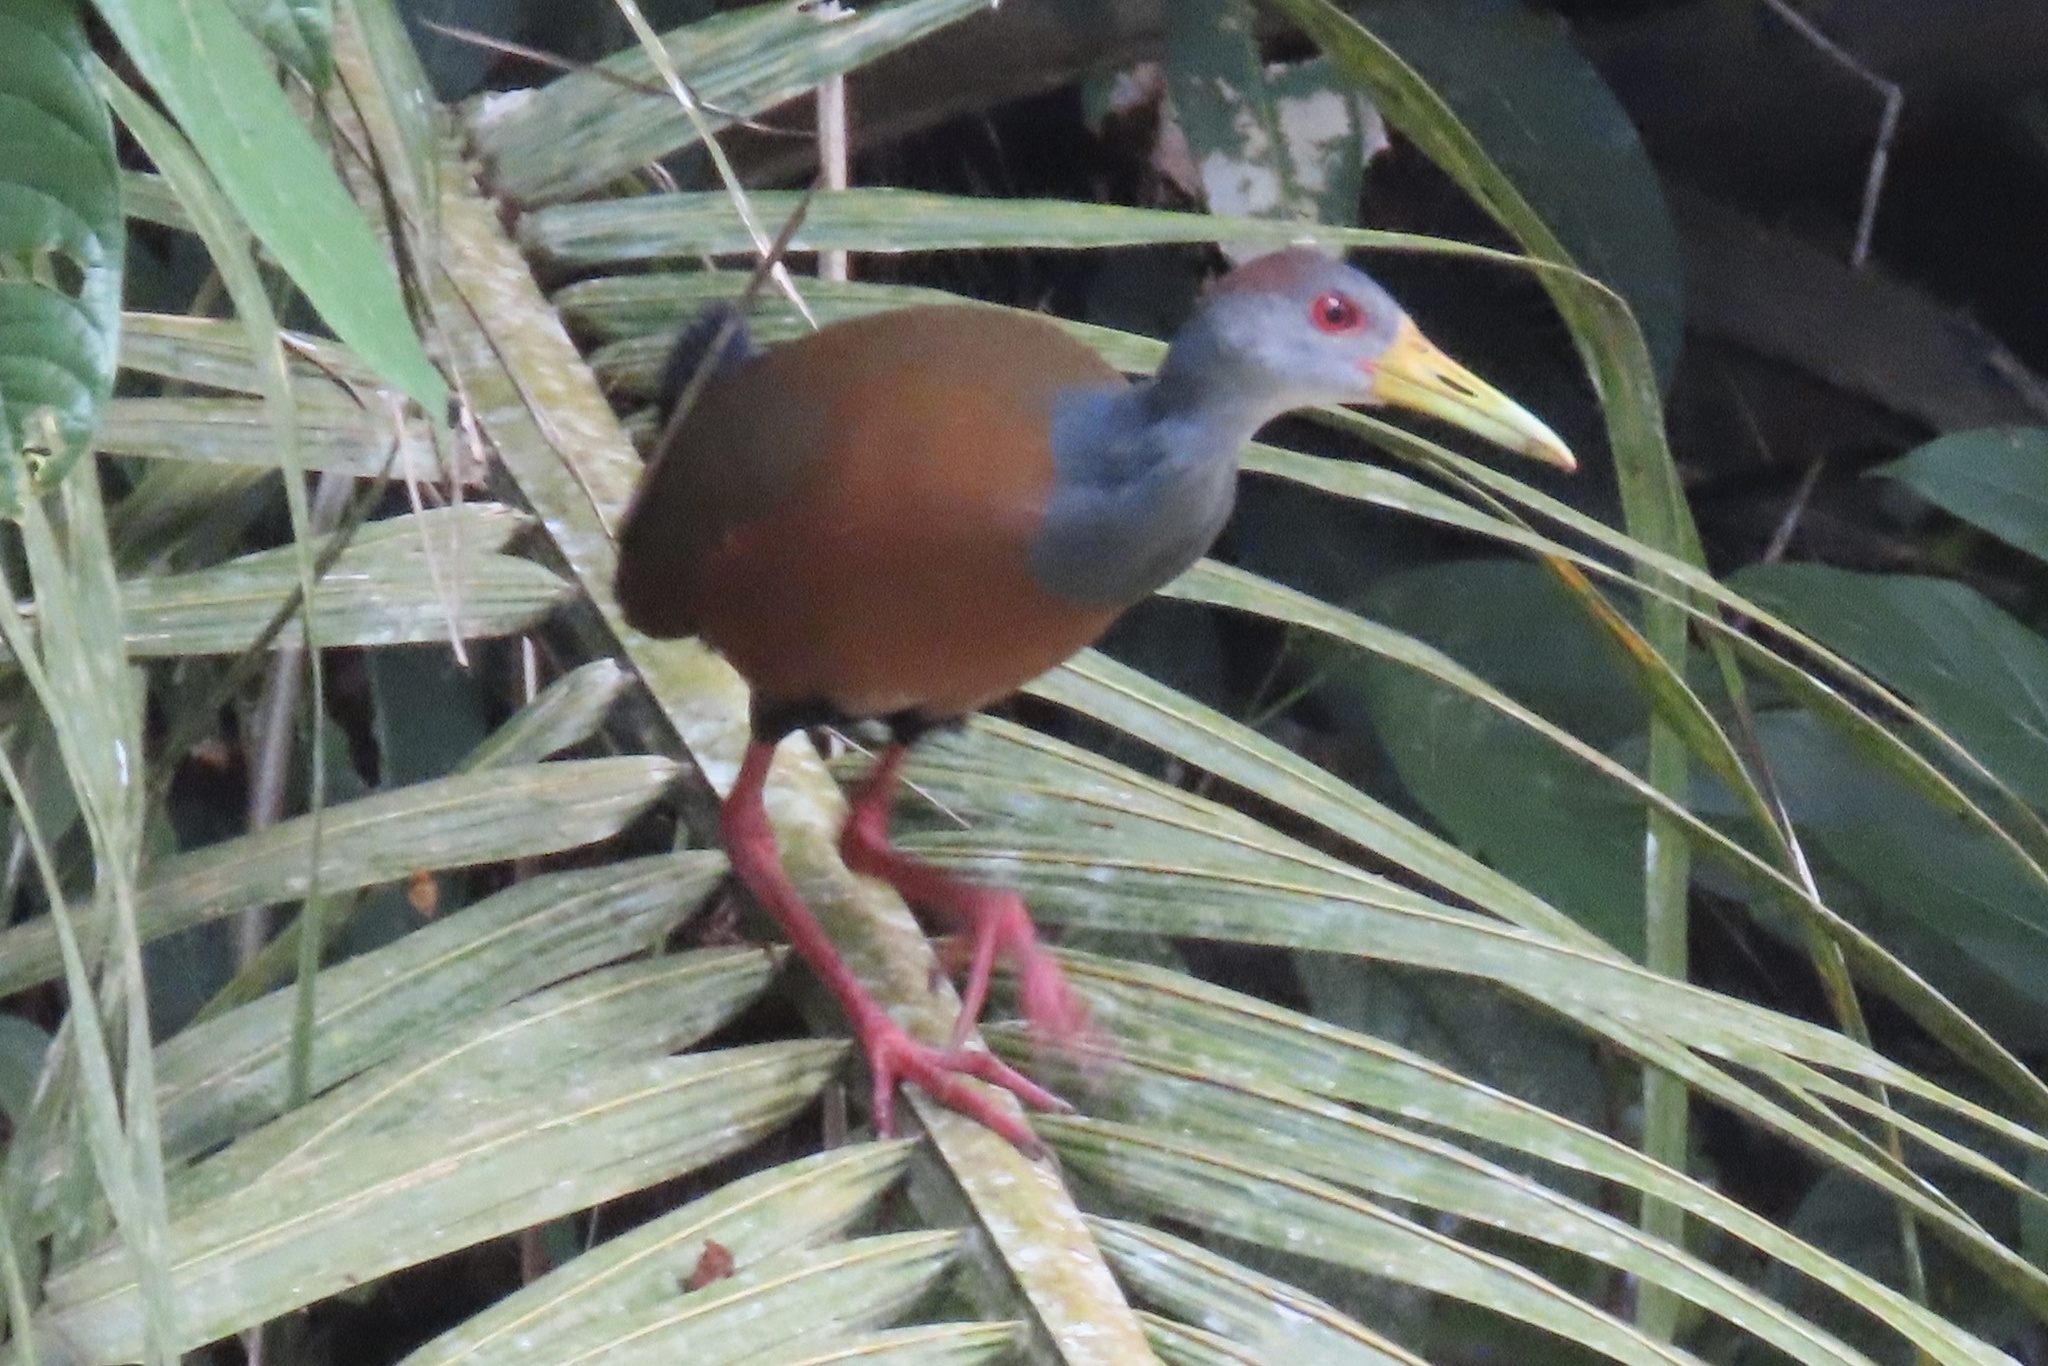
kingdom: Animalia
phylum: Chordata
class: Aves
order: Gruiformes
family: Rallidae
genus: Aramides
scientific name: Aramides albiventris
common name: Russet-naped wood-rail
